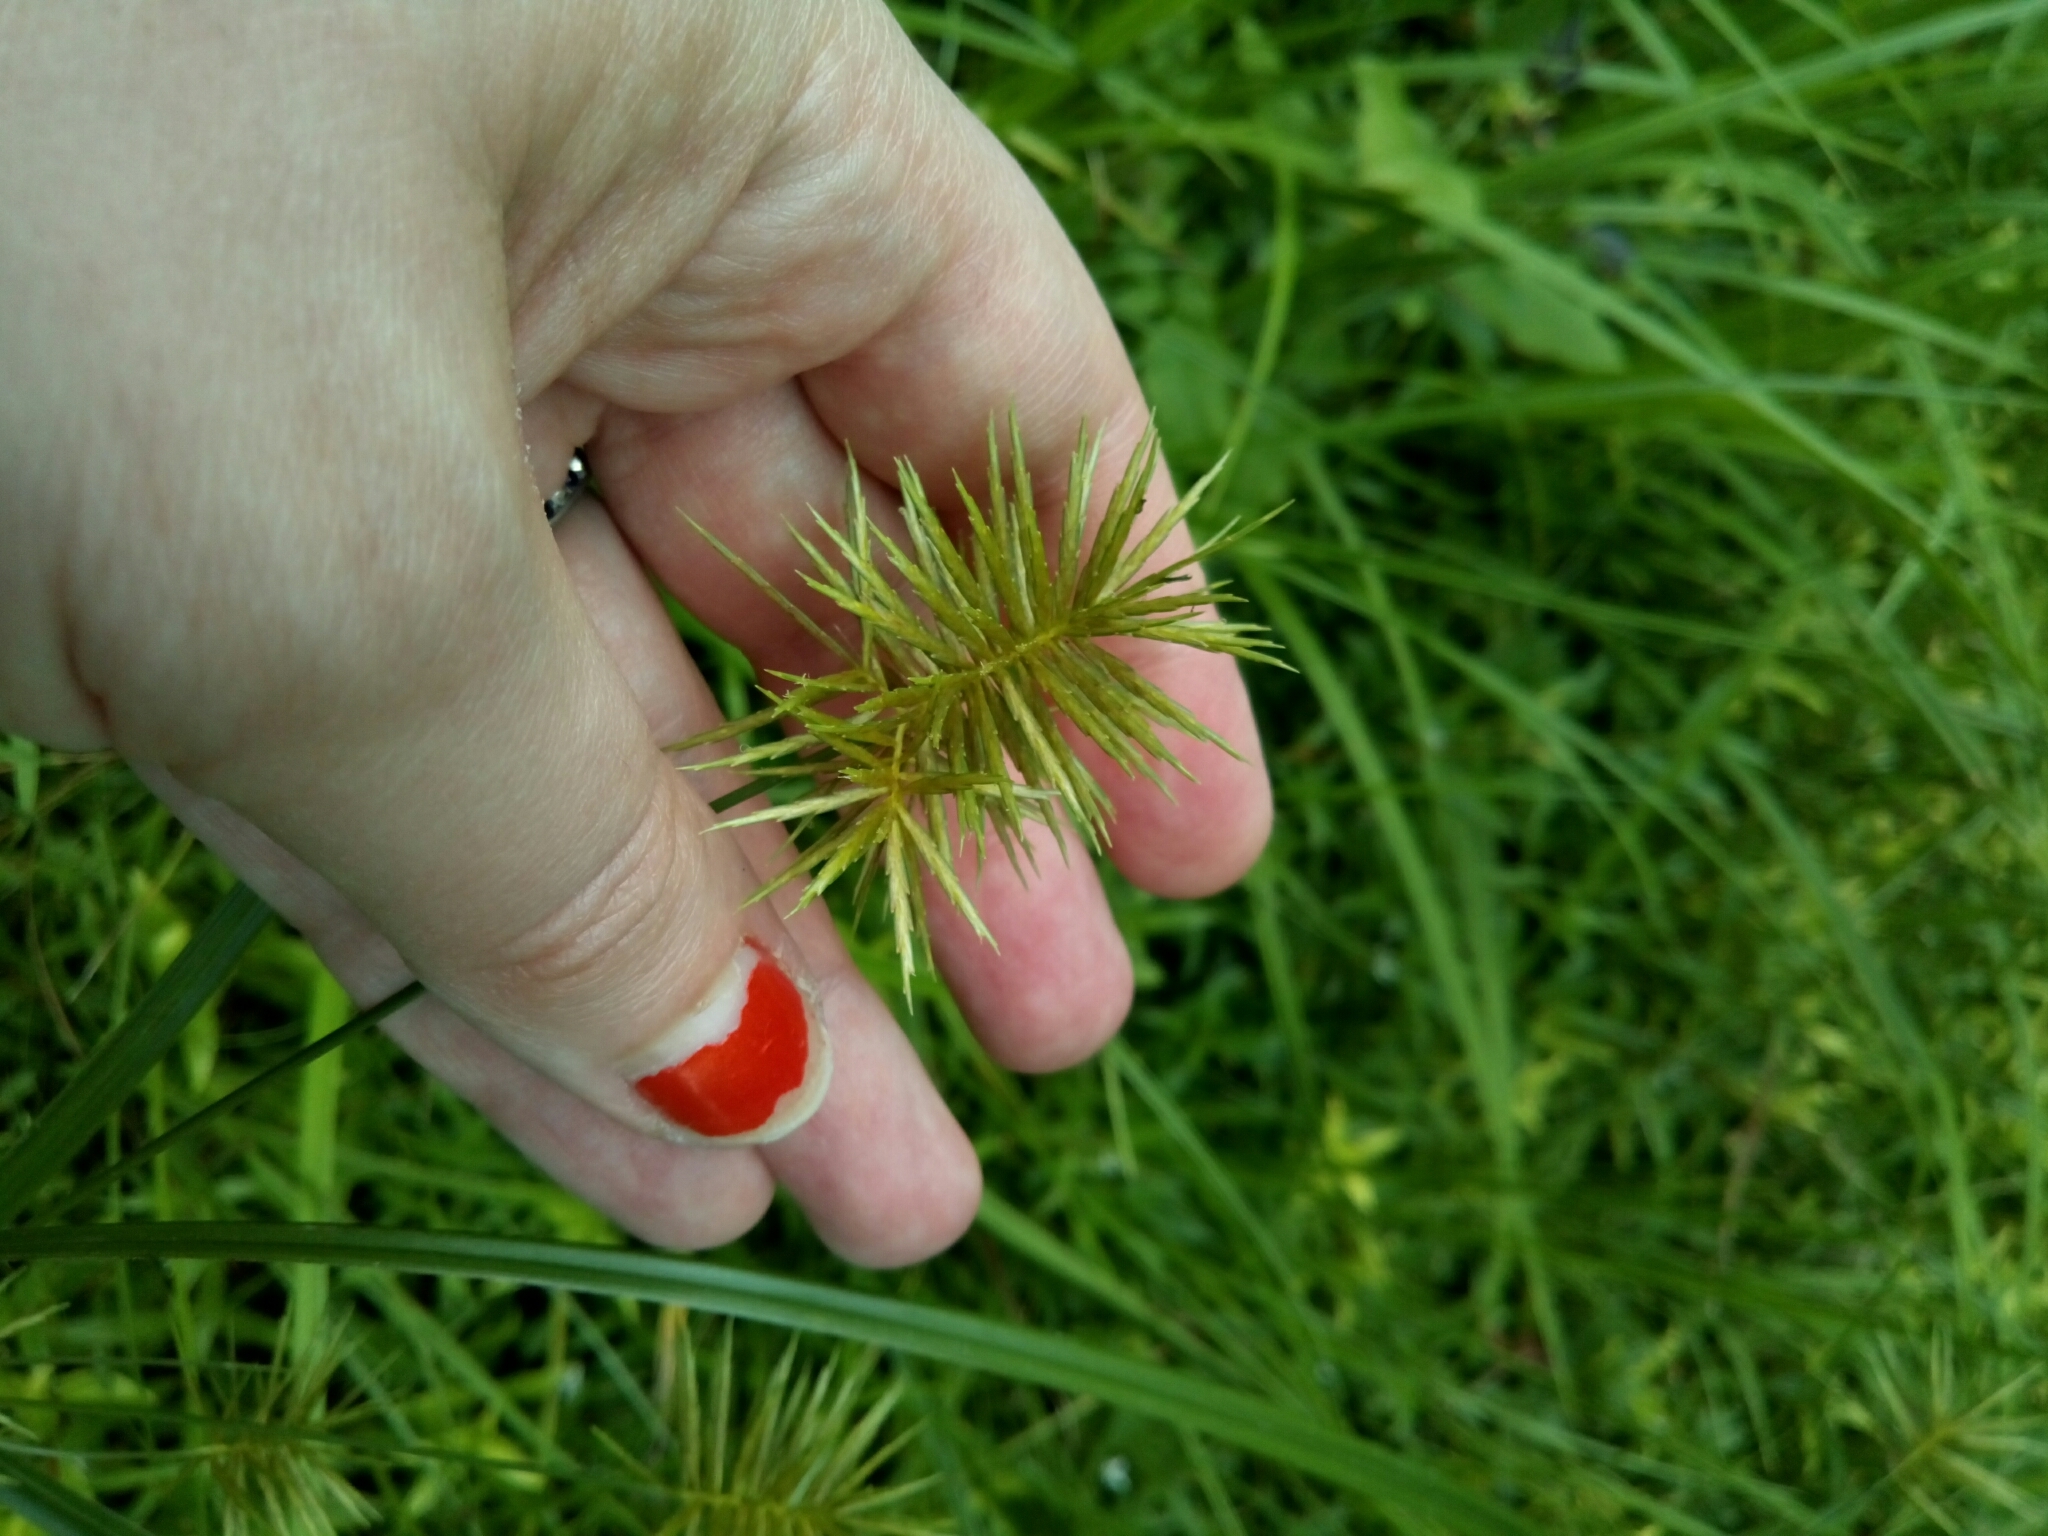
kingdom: Plantae
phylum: Tracheophyta
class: Liliopsida
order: Poales
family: Cyperaceae
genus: Cyperus
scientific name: Cyperus strigosus
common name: False nutsedge
